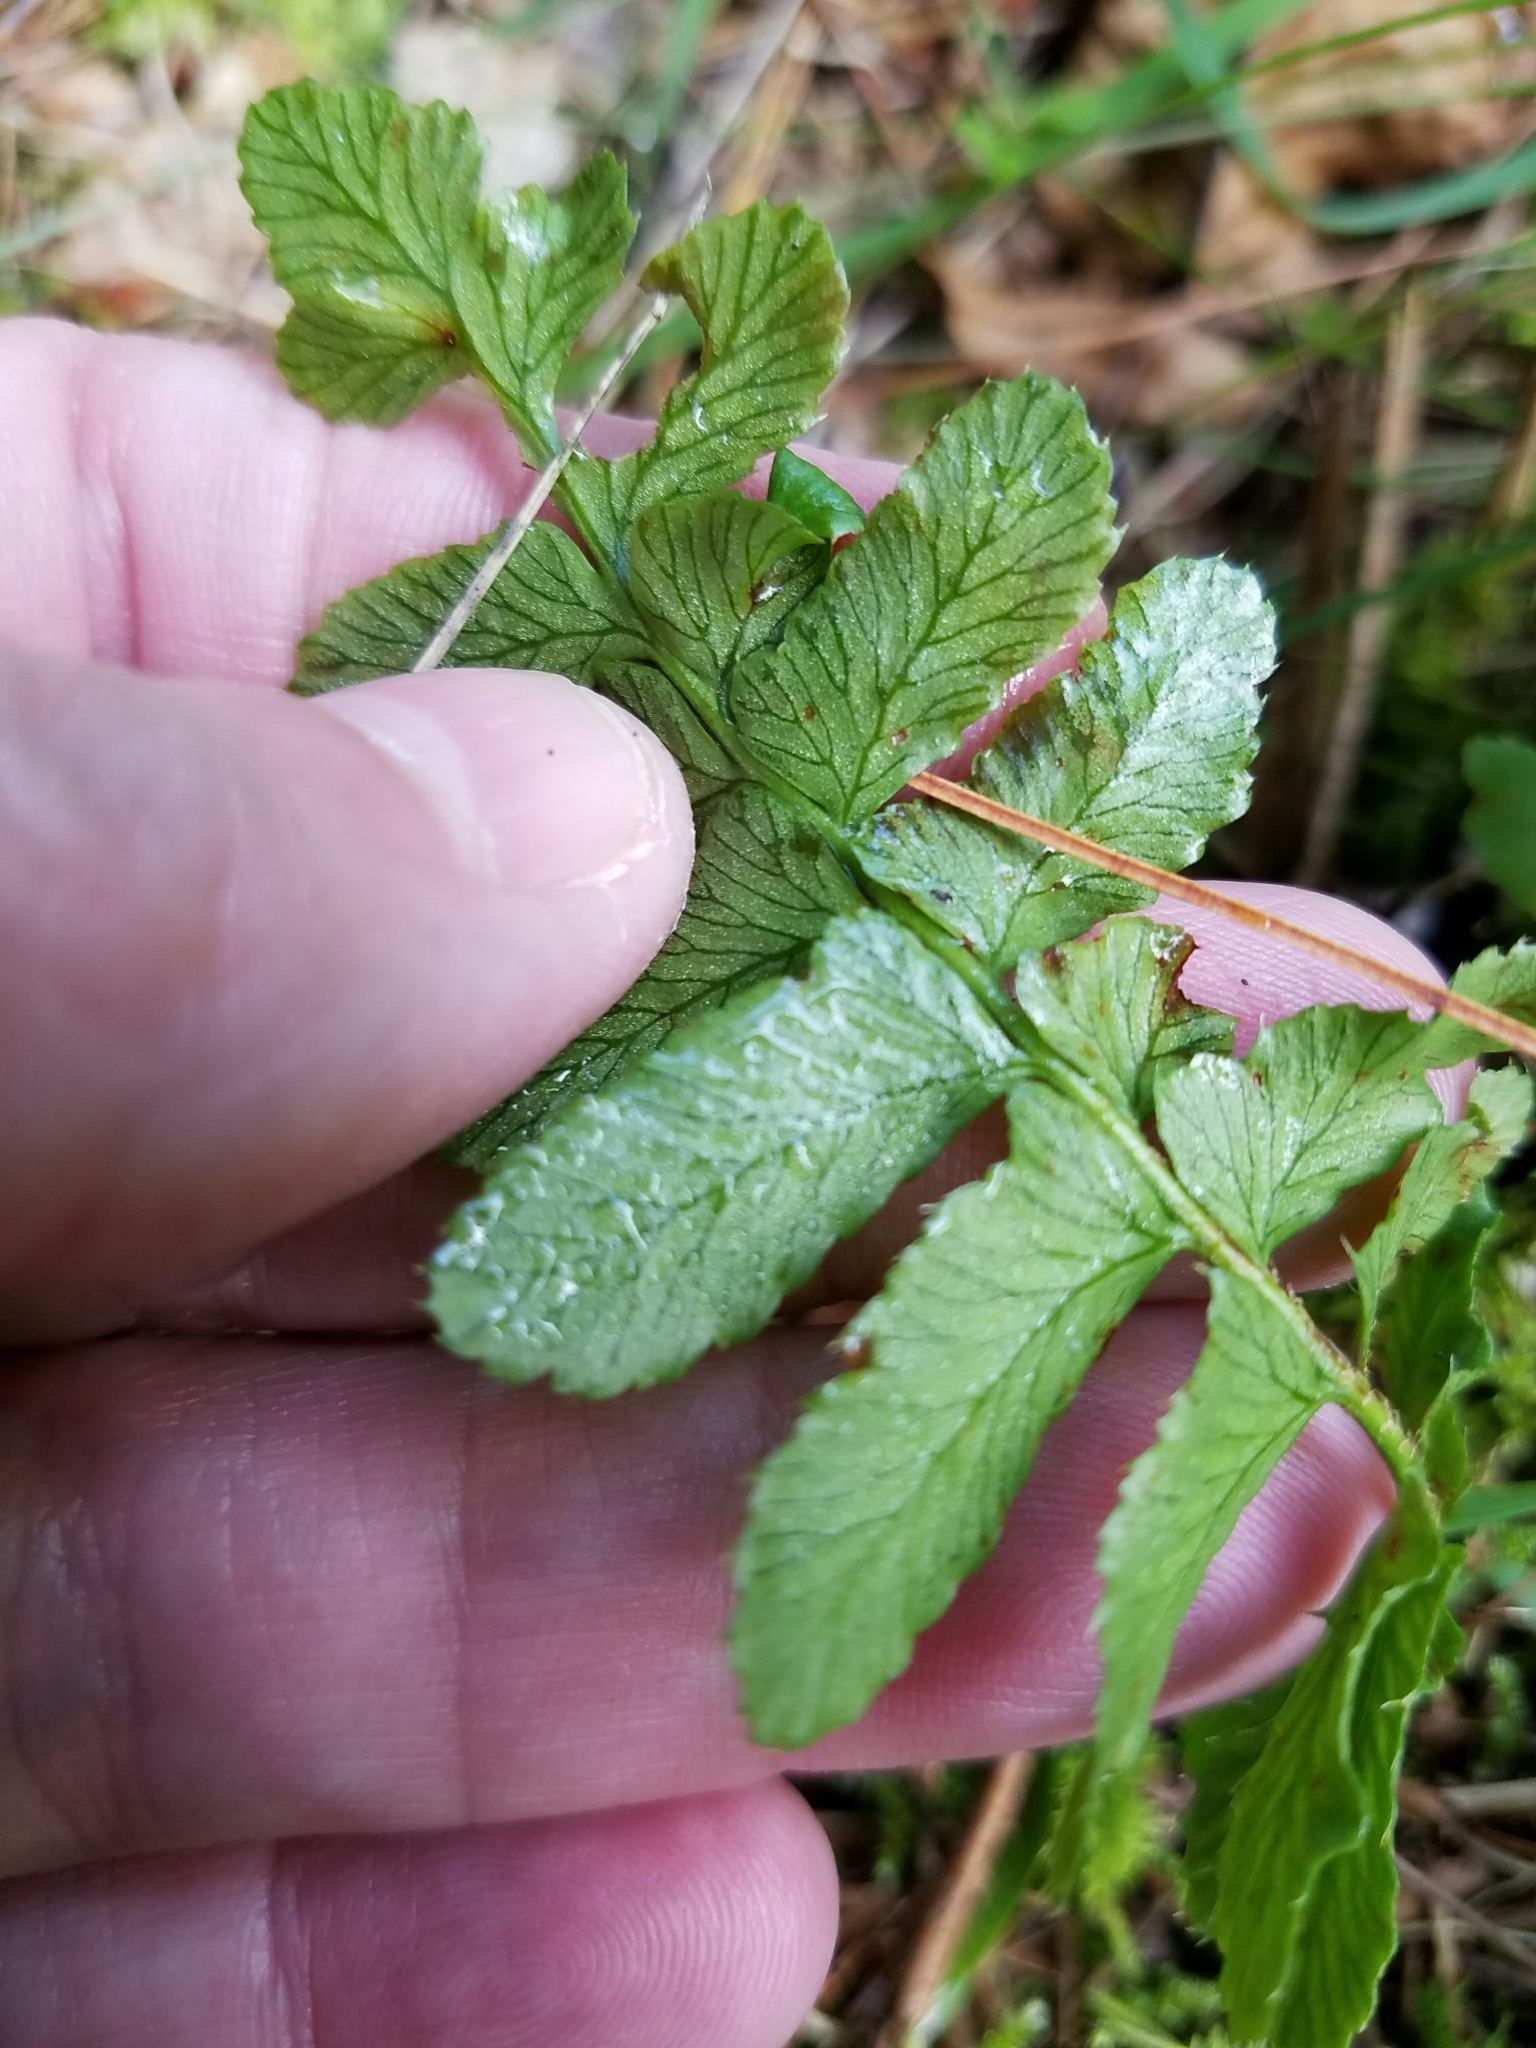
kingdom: Plantae
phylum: Tracheophyta
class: Polypodiopsida
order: Polypodiales
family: Dryopteridaceae
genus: Polystichum
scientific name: Polystichum acrostichoides
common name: Christmas fern
